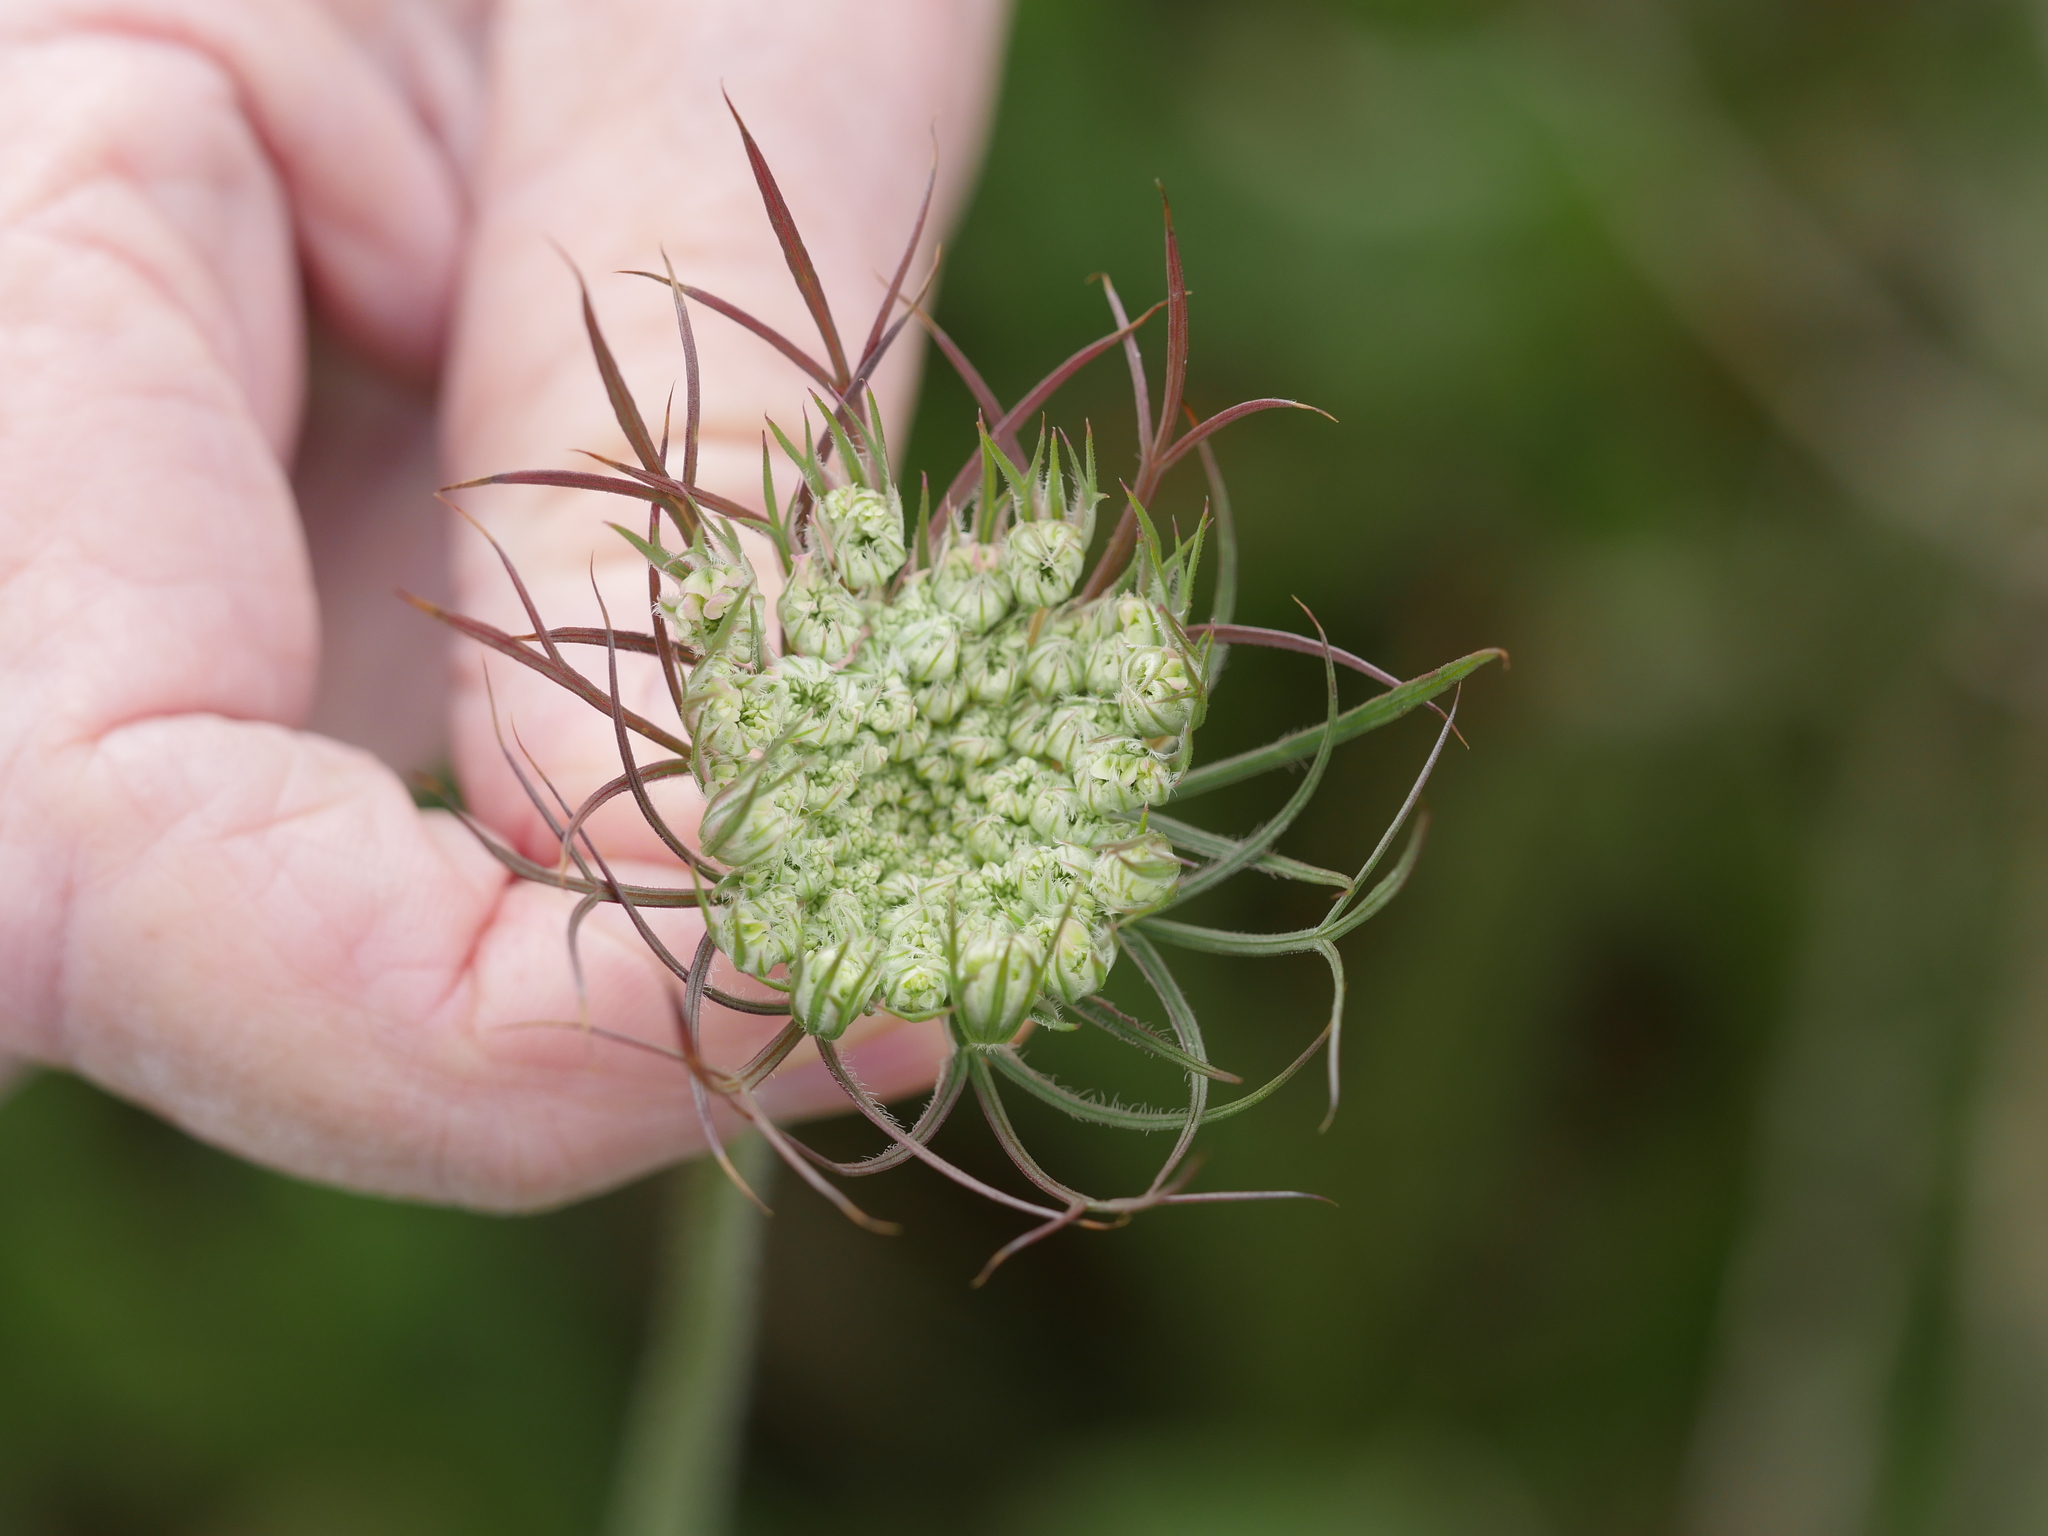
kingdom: Plantae
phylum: Tracheophyta
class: Magnoliopsida
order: Apiales
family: Apiaceae
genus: Daucus
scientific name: Daucus carota
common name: Wild carrot
